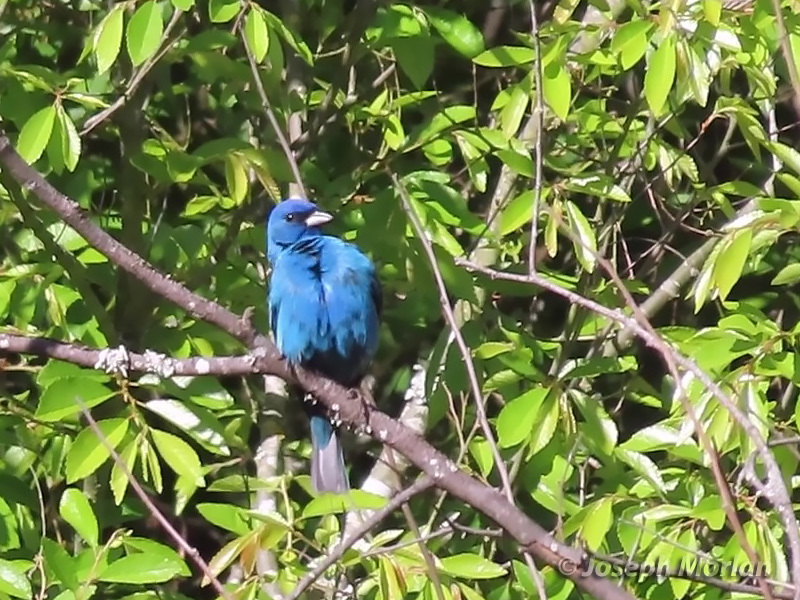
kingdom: Animalia
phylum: Chordata
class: Aves
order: Passeriformes
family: Cardinalidae
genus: Passerina
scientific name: Passerina cyanea
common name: Indigo bunting
